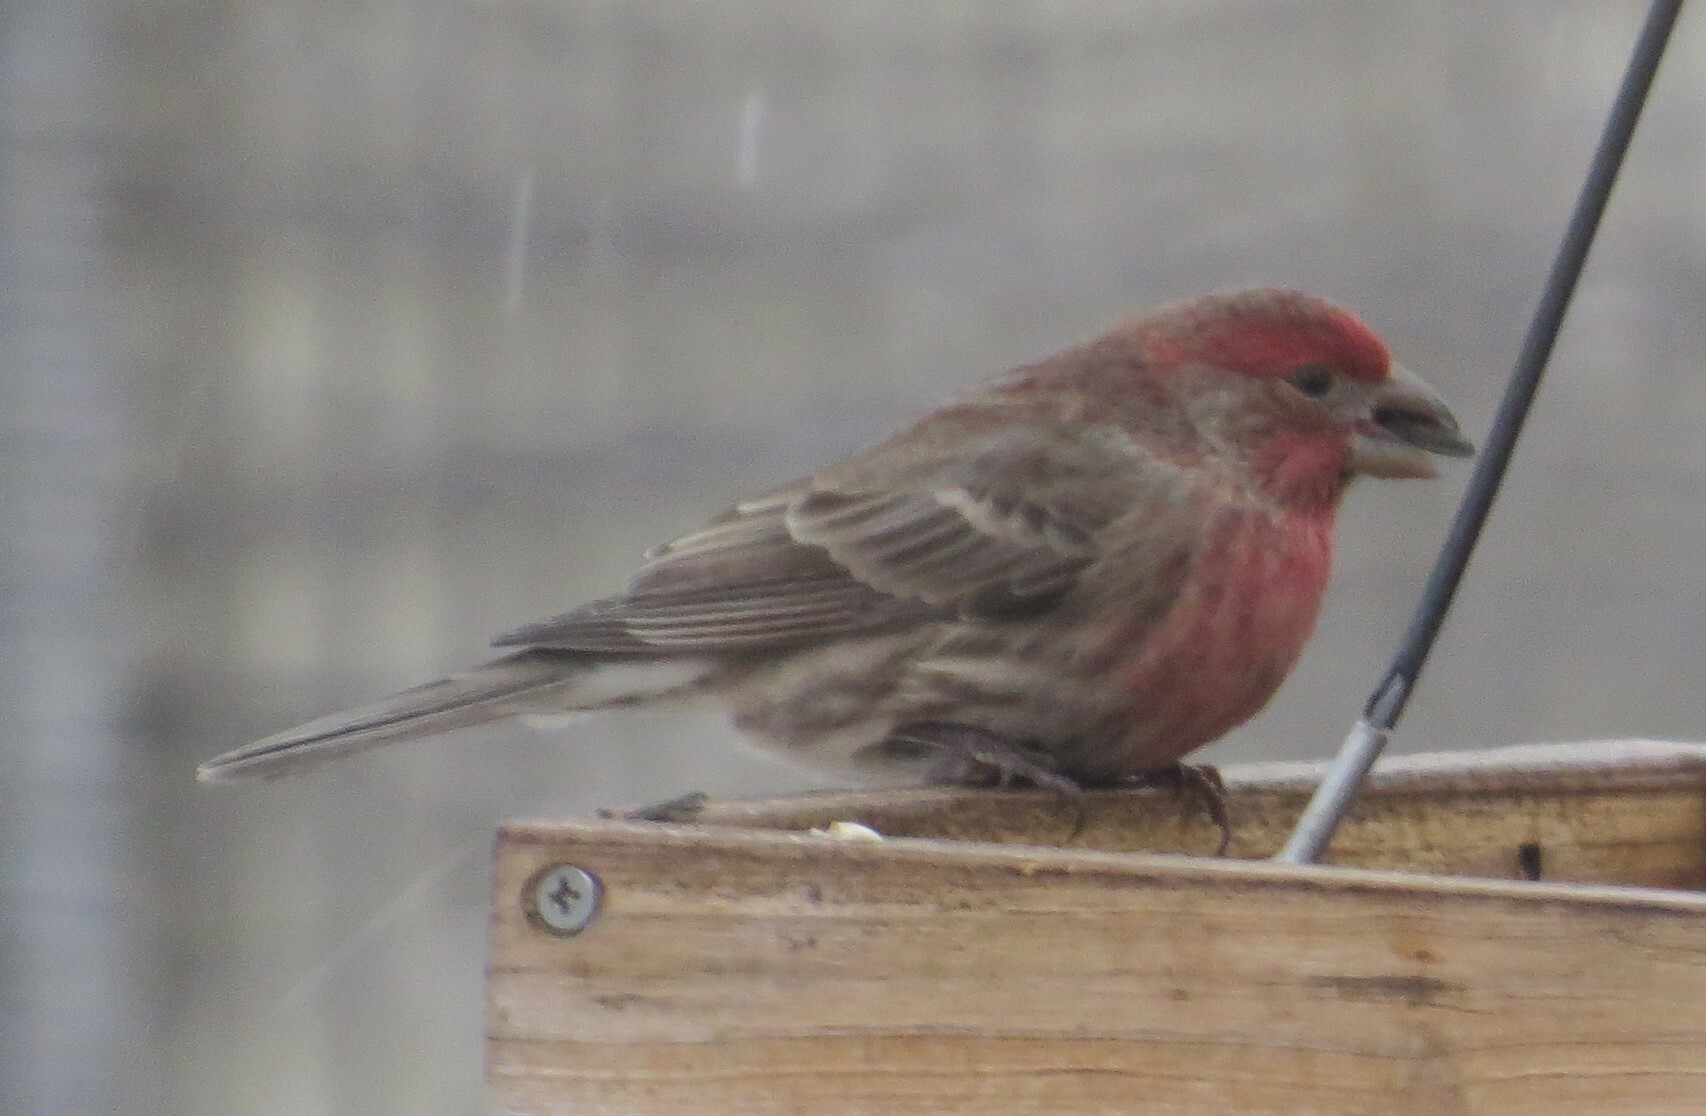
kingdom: Animalia
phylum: Chordata
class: Aves
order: Passeriformes
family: Fringillidae
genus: Haemorhous
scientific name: Haemorhous mexicanus
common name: House finch
